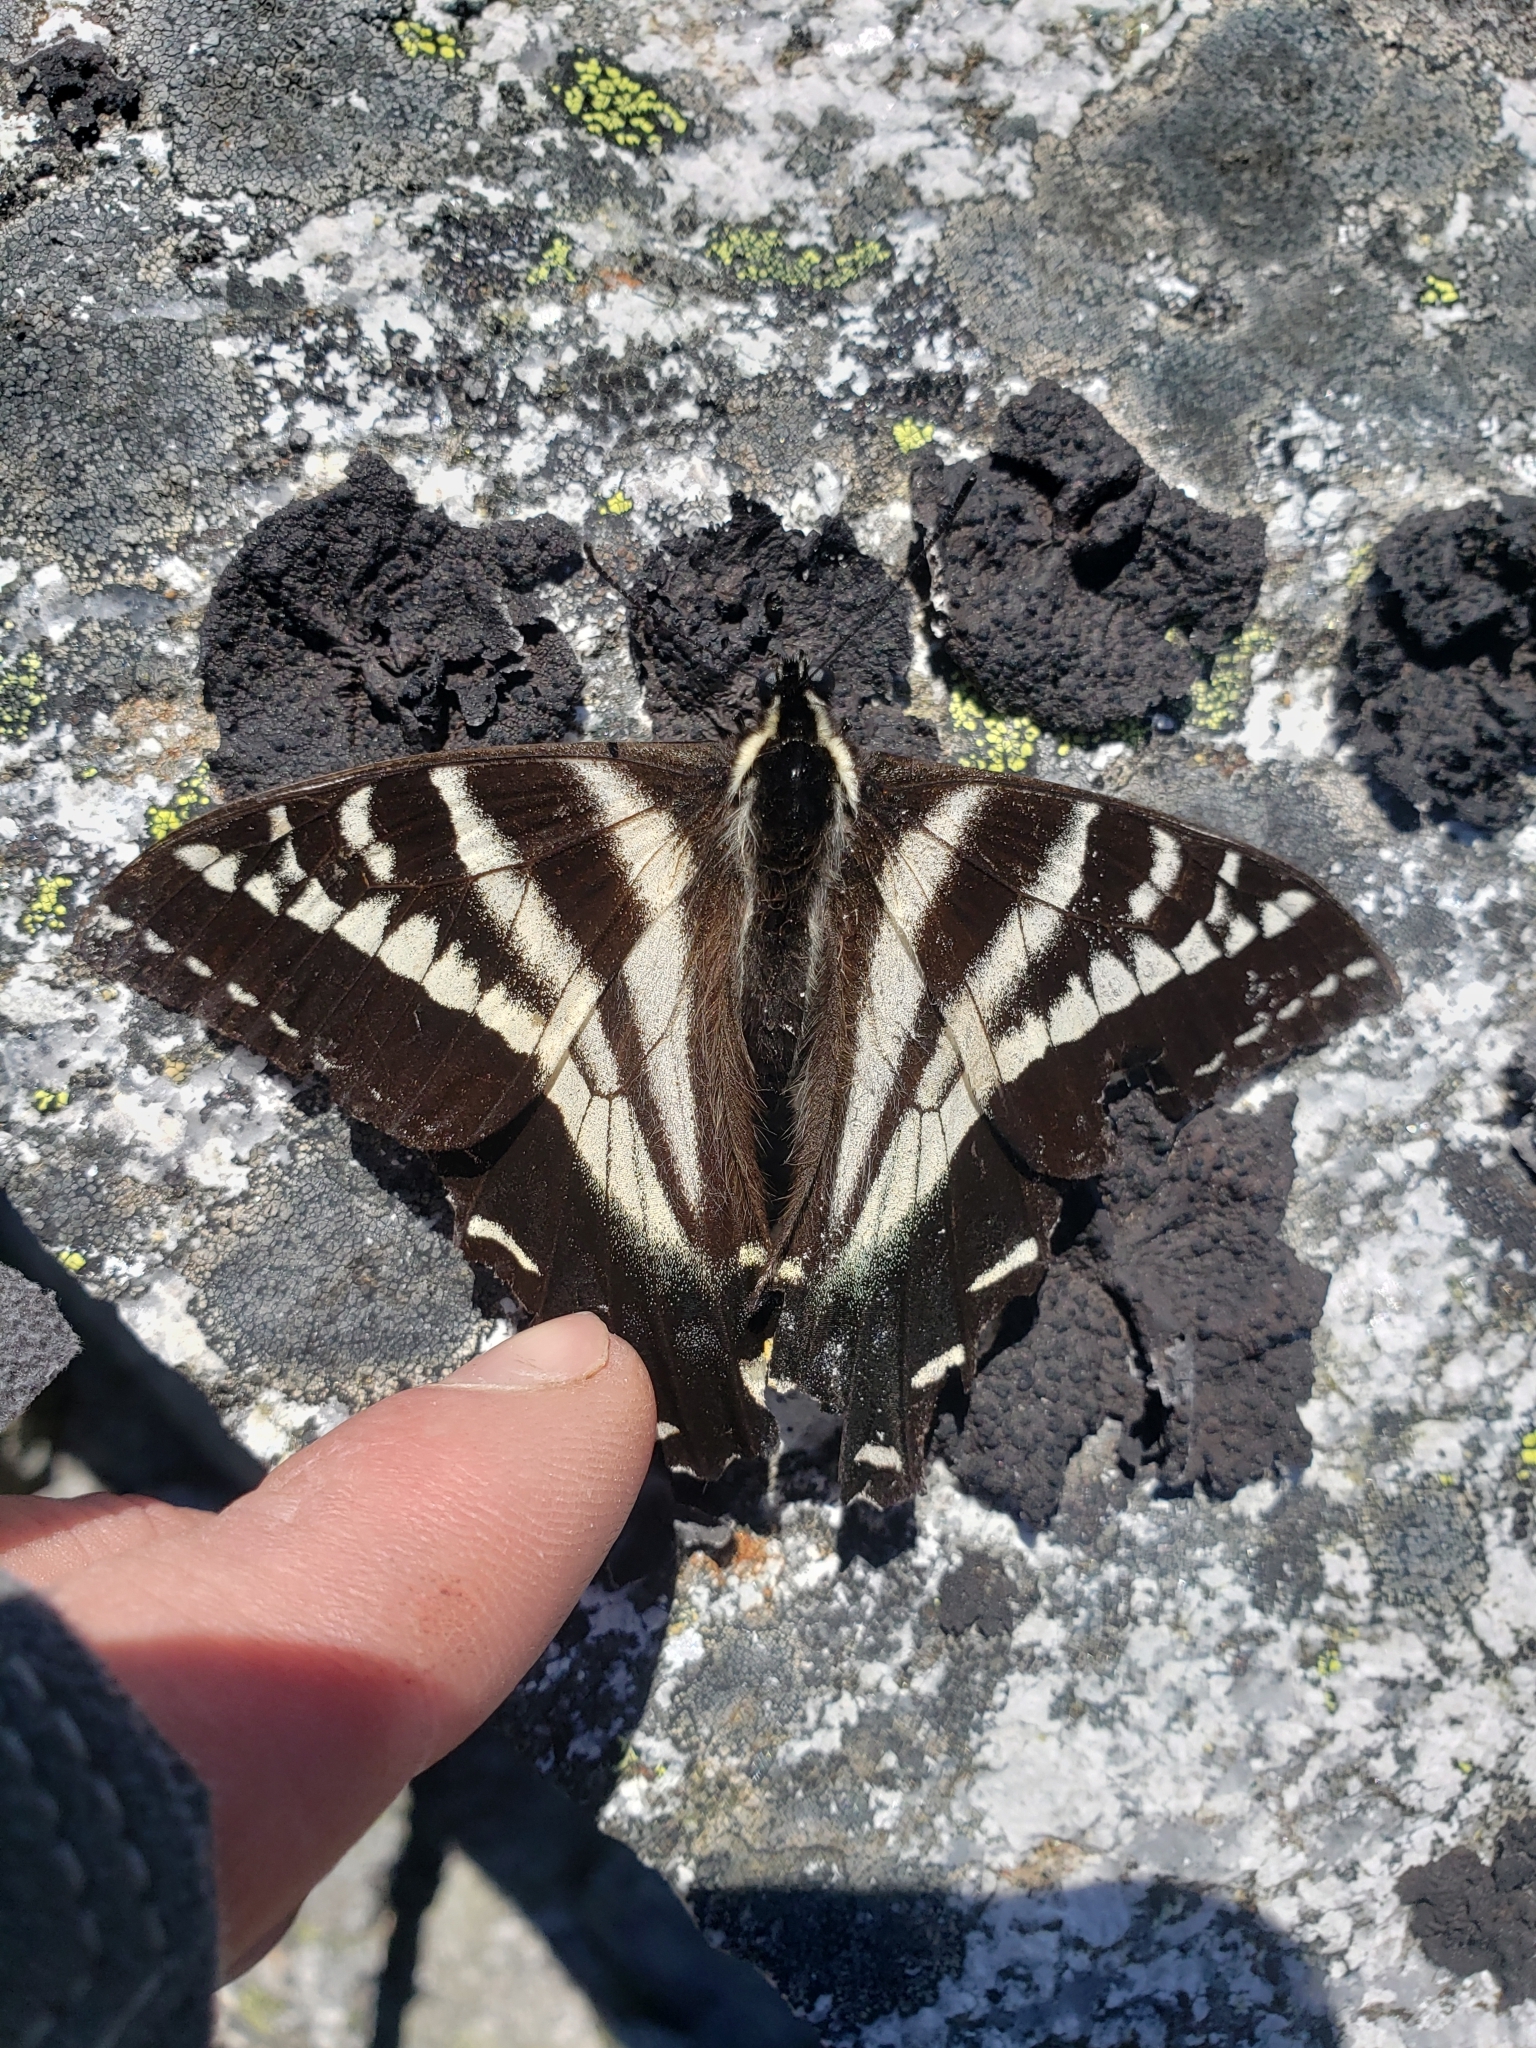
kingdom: Animalia
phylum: Arthropoda
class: Insecta
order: Lepidoptera
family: Papilionidae
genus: Papilio
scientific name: Papilio eurymedon
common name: Pale tiger swallowtail
